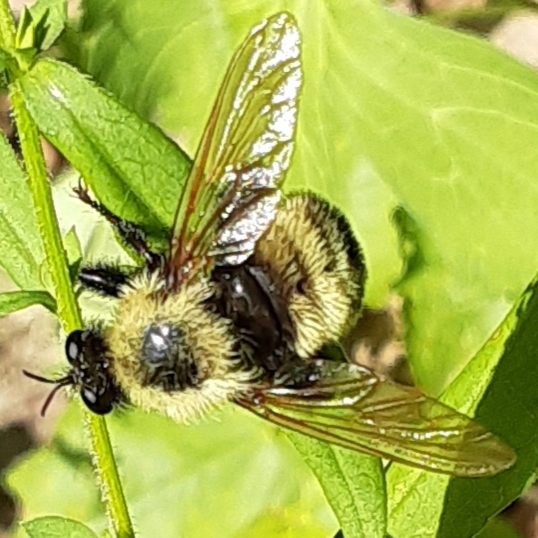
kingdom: Animalia
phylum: Arthropoda
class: Insecta
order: Diptera
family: Asilidae
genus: Laphria
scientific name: Laphria thoracica
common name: Bumble bee mimic robber fly
